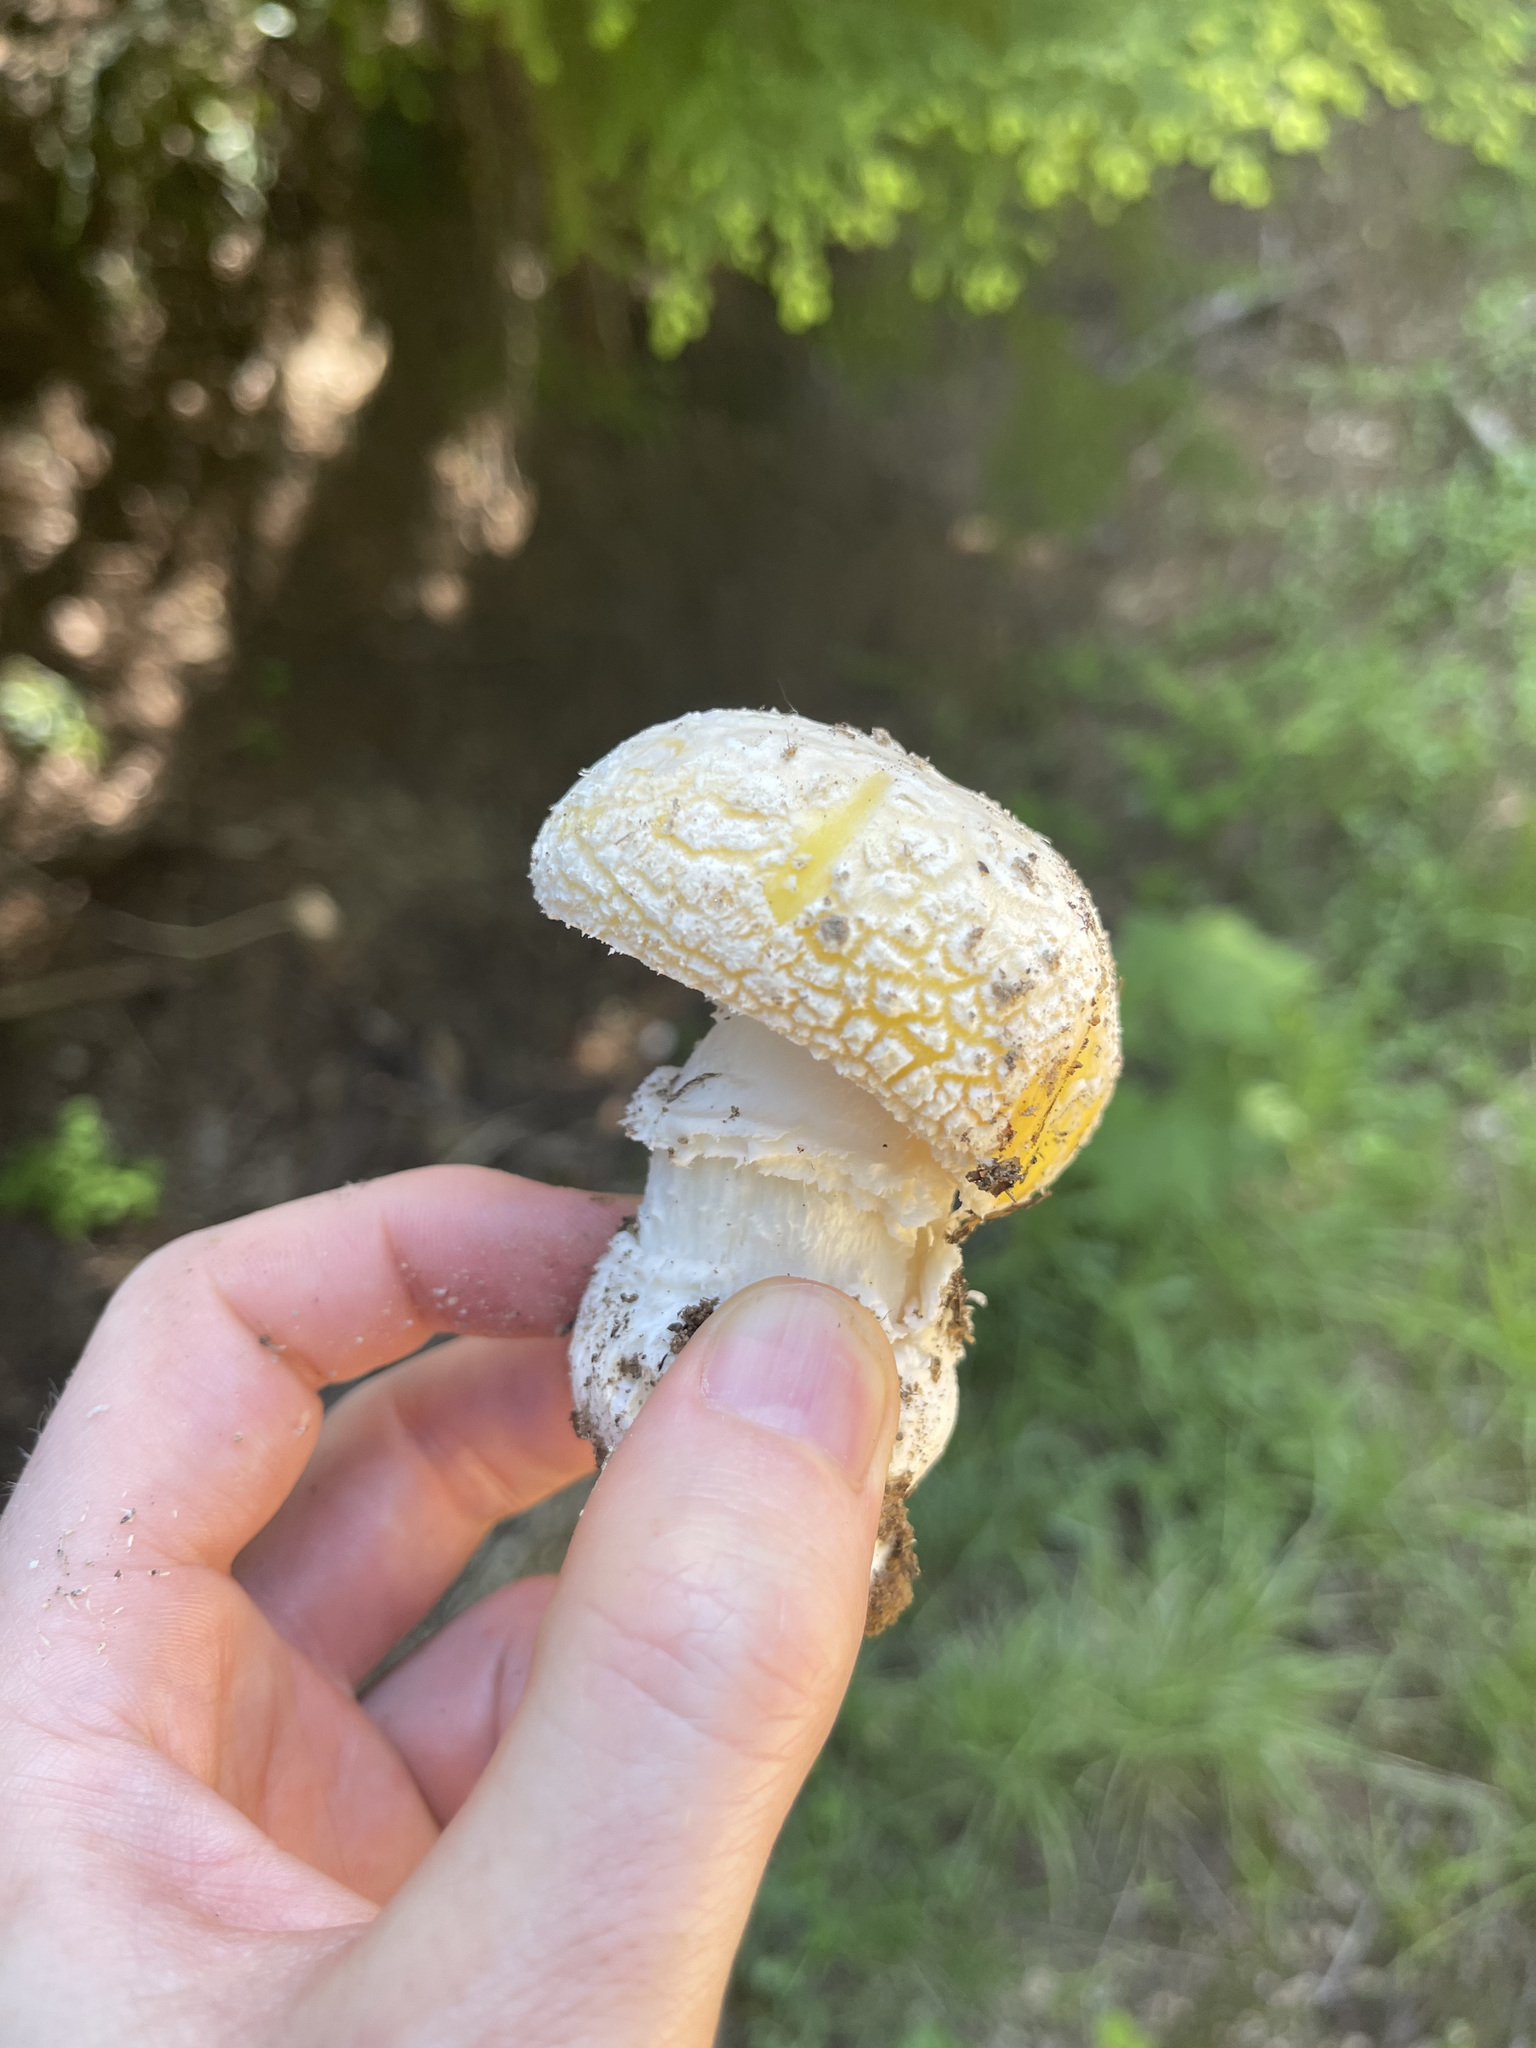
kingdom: Fungi
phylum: Basidiomycota
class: Agaricomycetes
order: Agaricales
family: Amanitaceae
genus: Amanita
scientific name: Amanita muscaria
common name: Fly agaric
